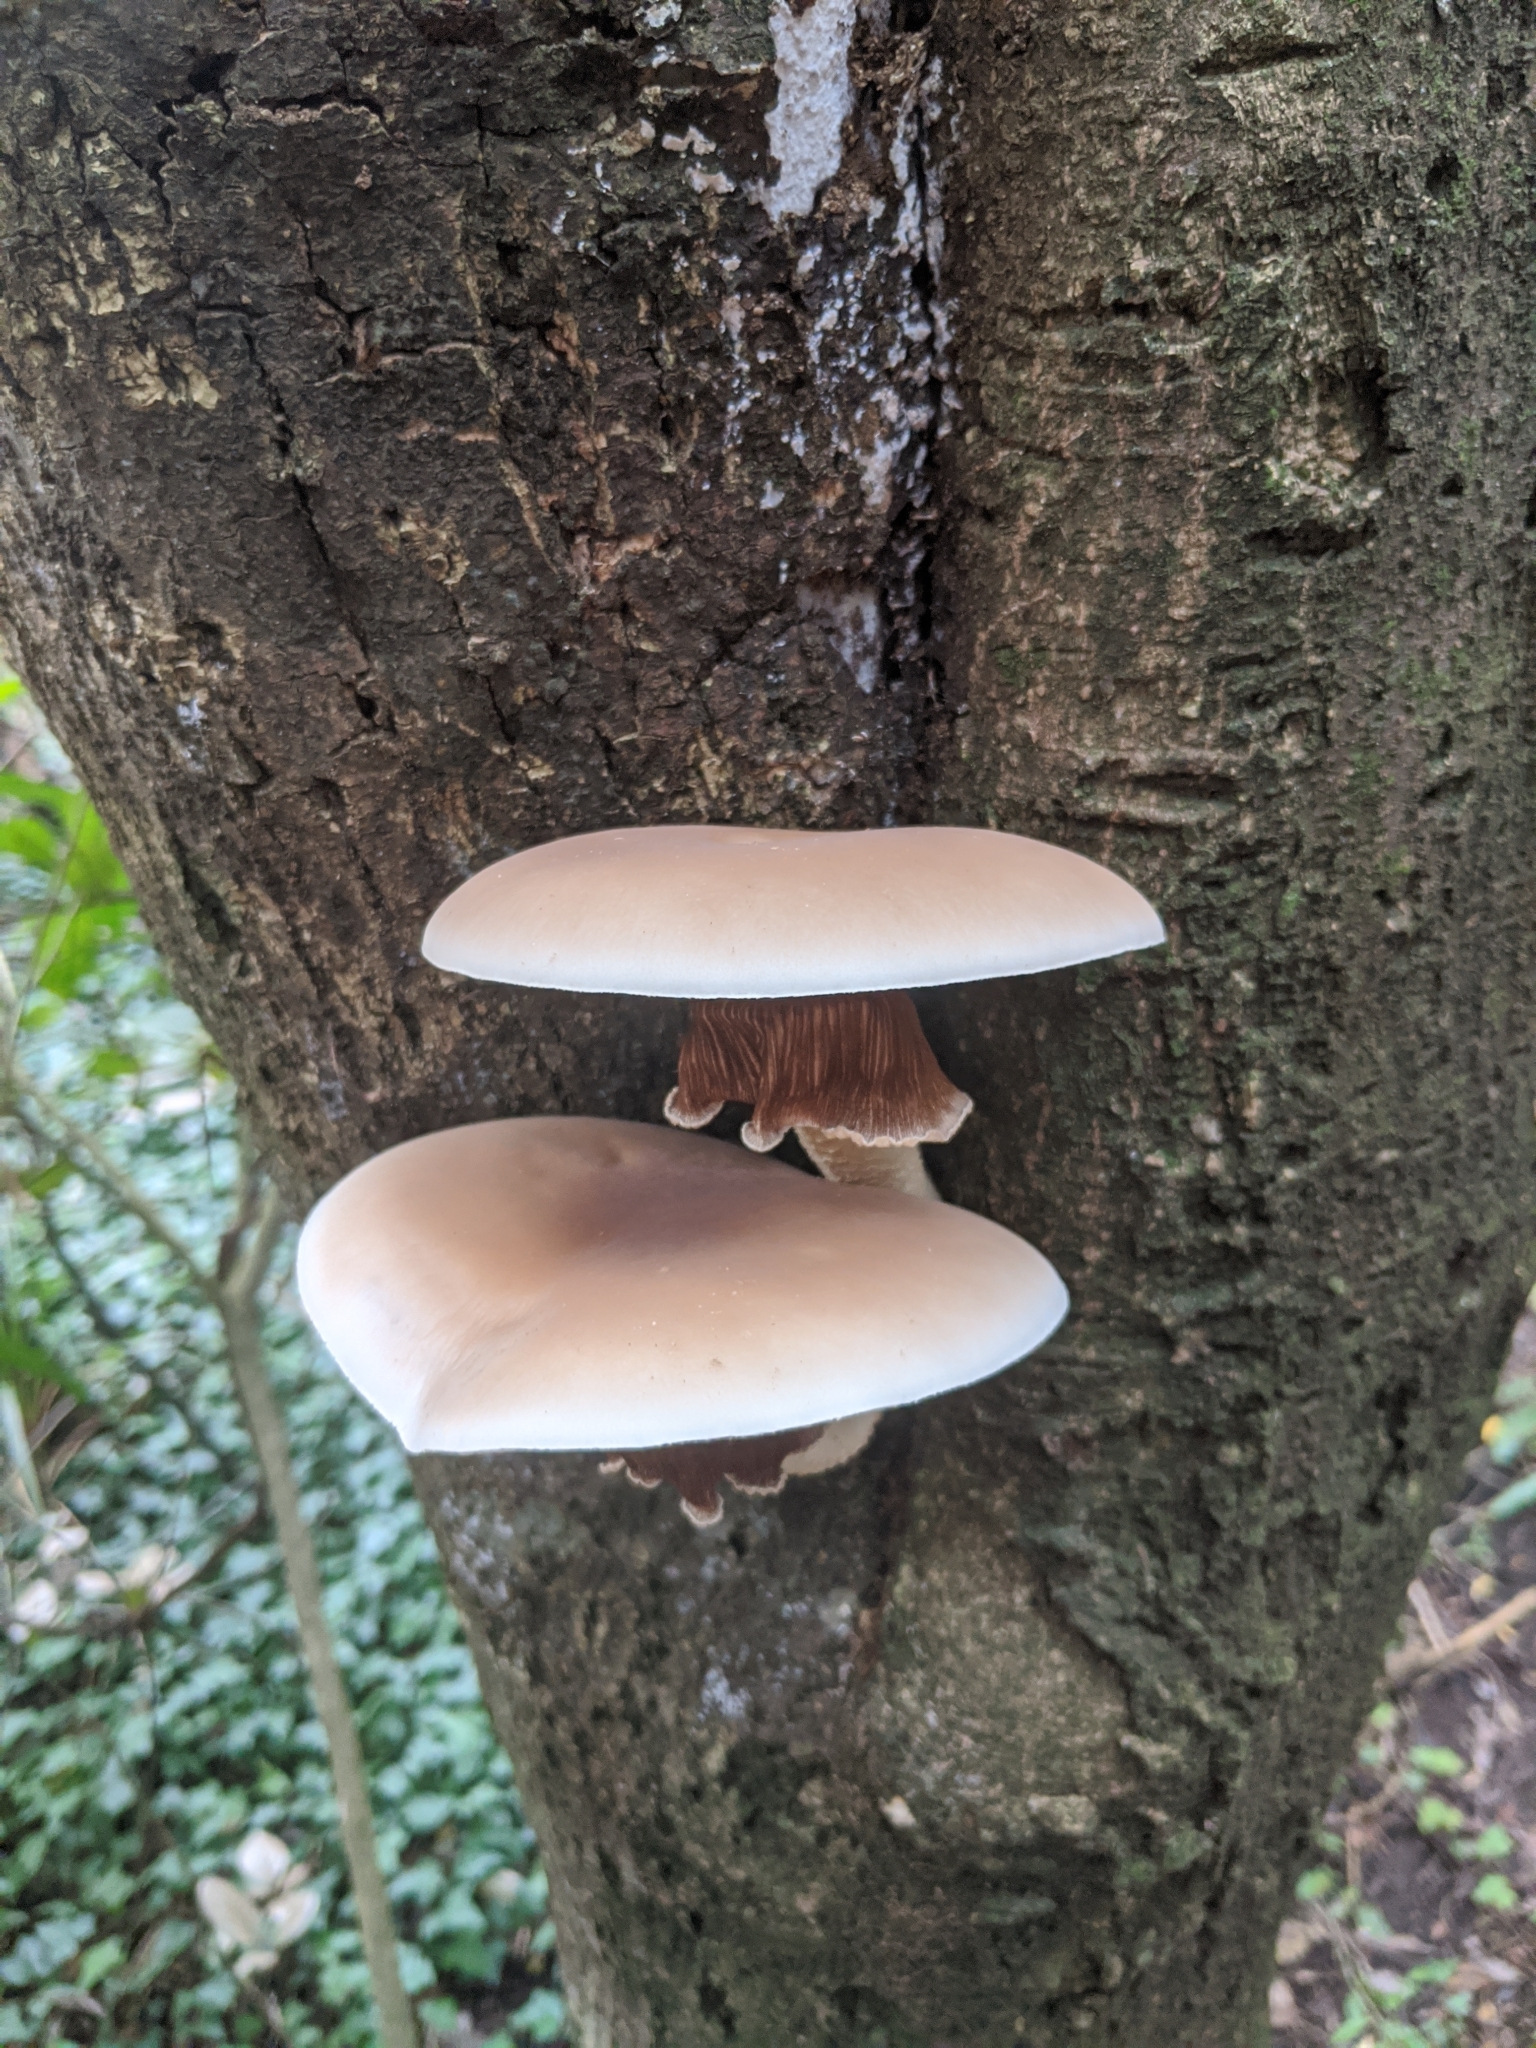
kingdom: Fungi
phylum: Basidiomycota
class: Agaricomycetes
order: Agaricales
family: Tubariaceae
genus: Cyclocybe
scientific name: Cyclocybe parasitica
